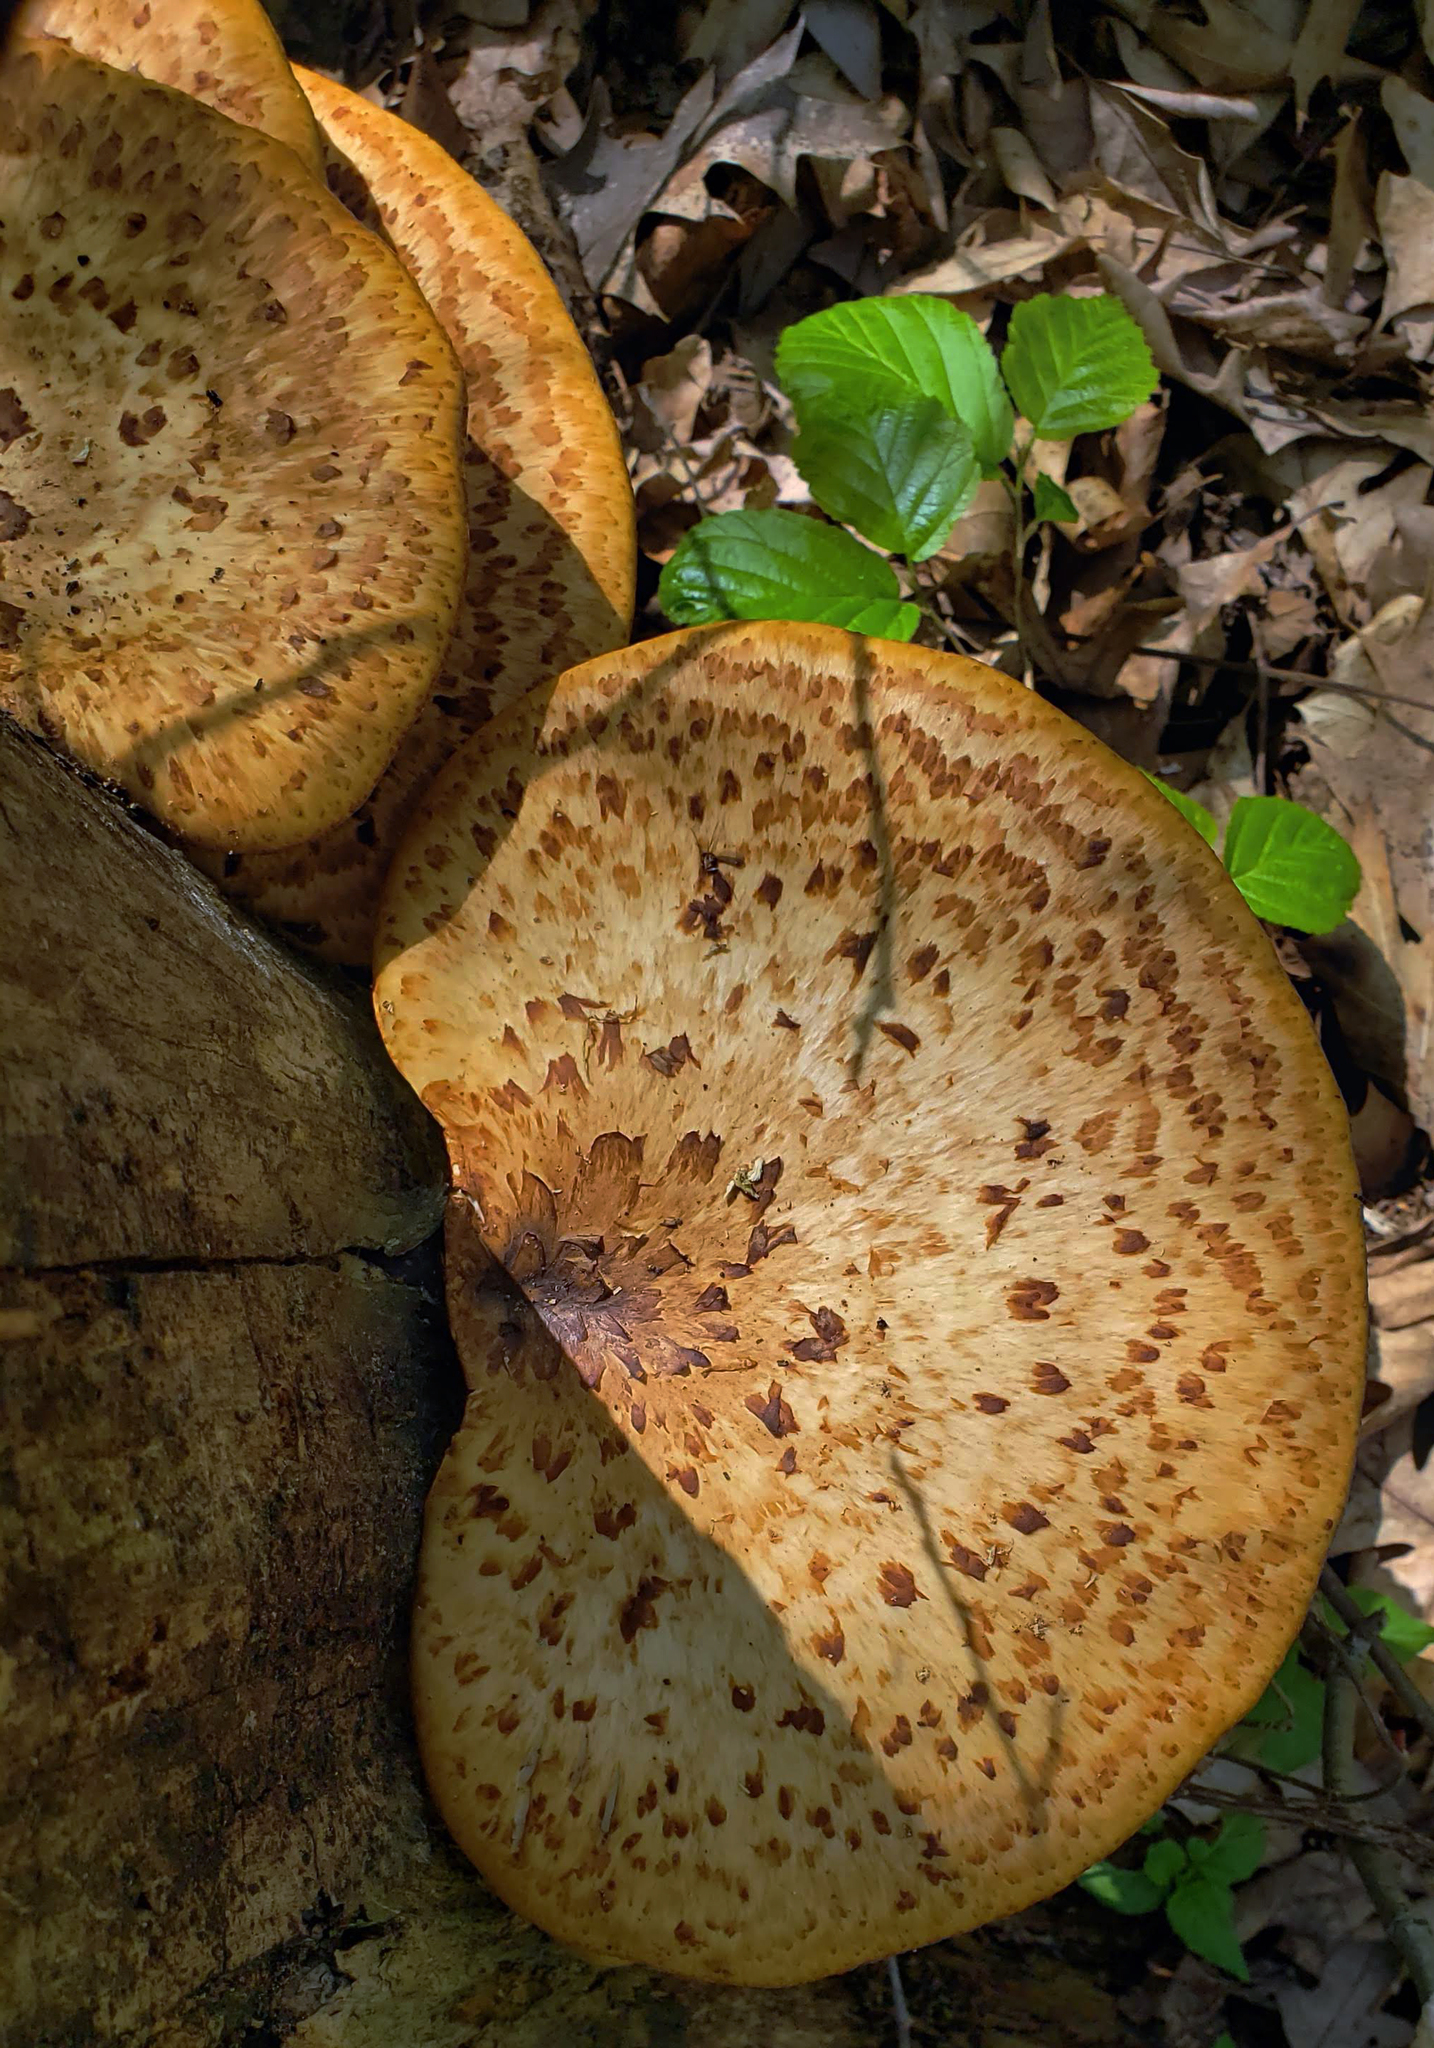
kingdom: Fungi
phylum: Basidiomycota
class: Agaricomycetes
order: Polyporales
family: Polyporaceae
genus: Cerioporus
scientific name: Cerioporus squamosus
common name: Dryad's saddle
